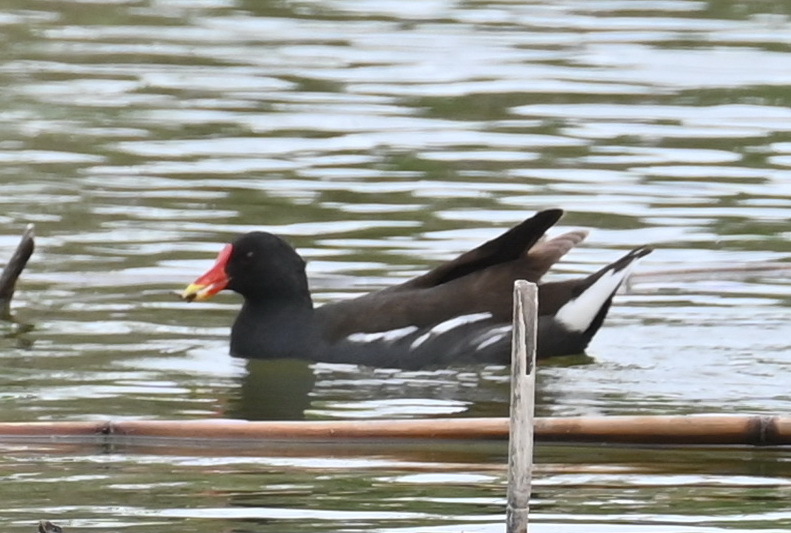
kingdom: Animalia
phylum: Chordata
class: Aves
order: Gruiformes
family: Rallidae
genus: Gallinula
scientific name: Gallinula chloropus
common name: Common moorhen
